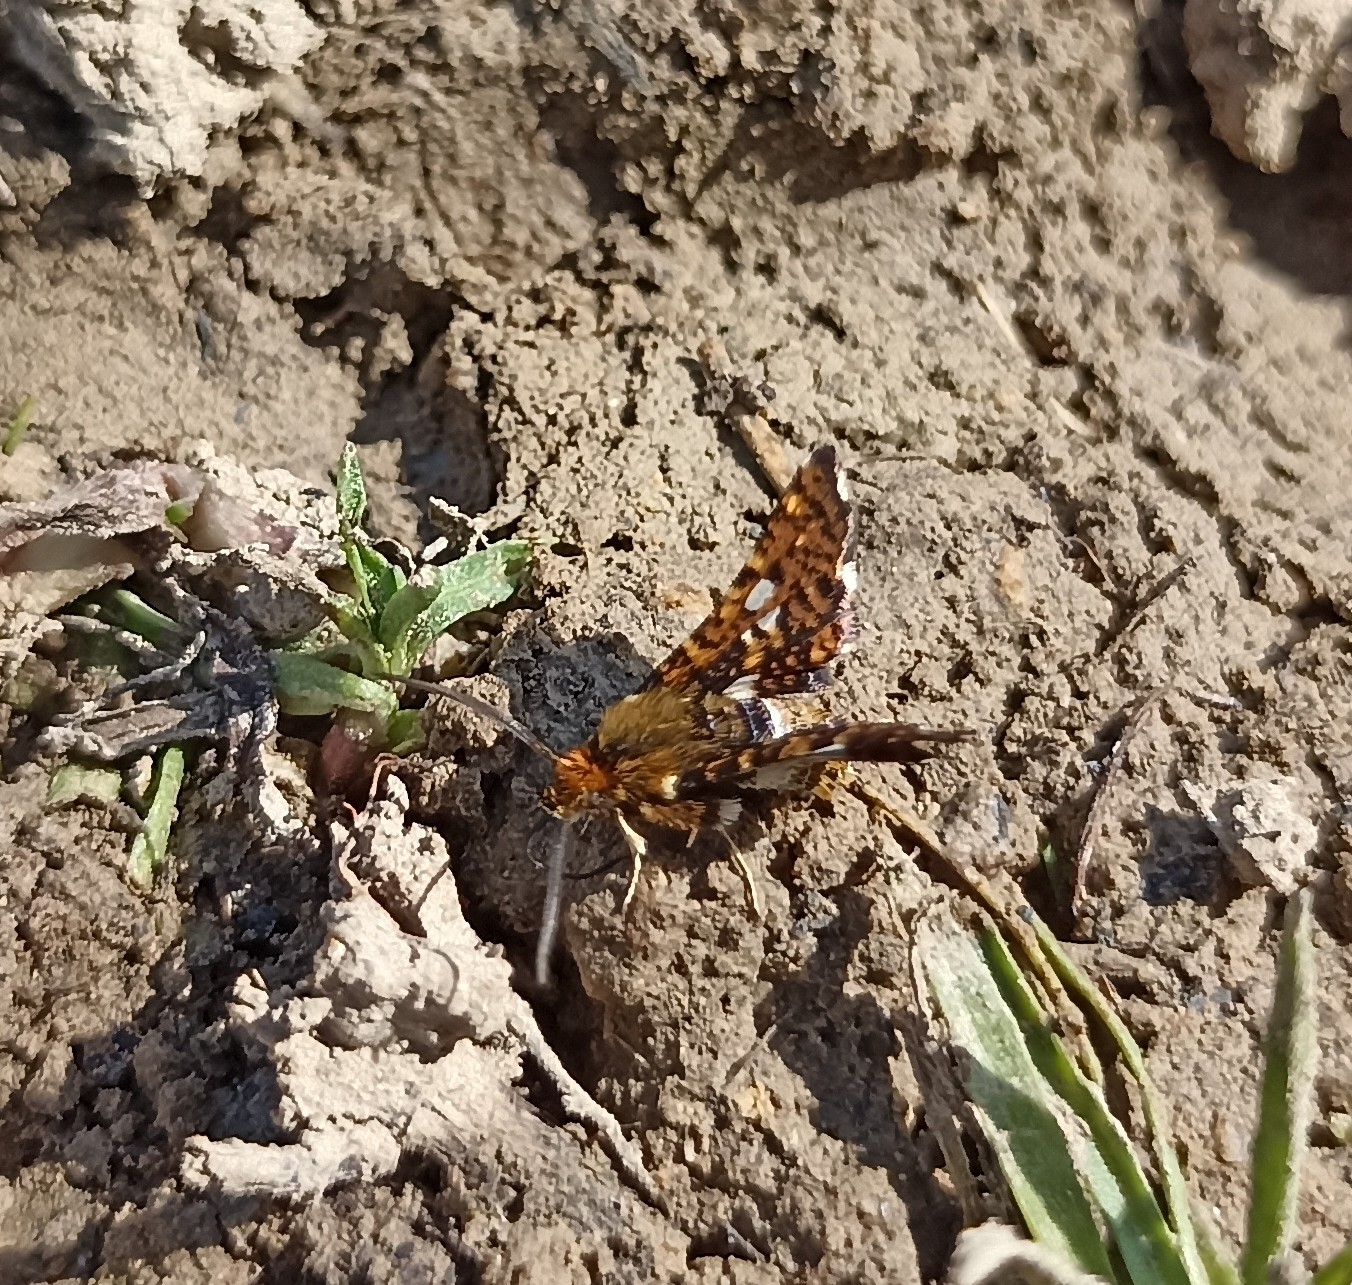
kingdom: Animalia
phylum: Arthropoda
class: Insecta
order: Lepidoptera
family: Thyrididae
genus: Thyris
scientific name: Thyris fenestrella
